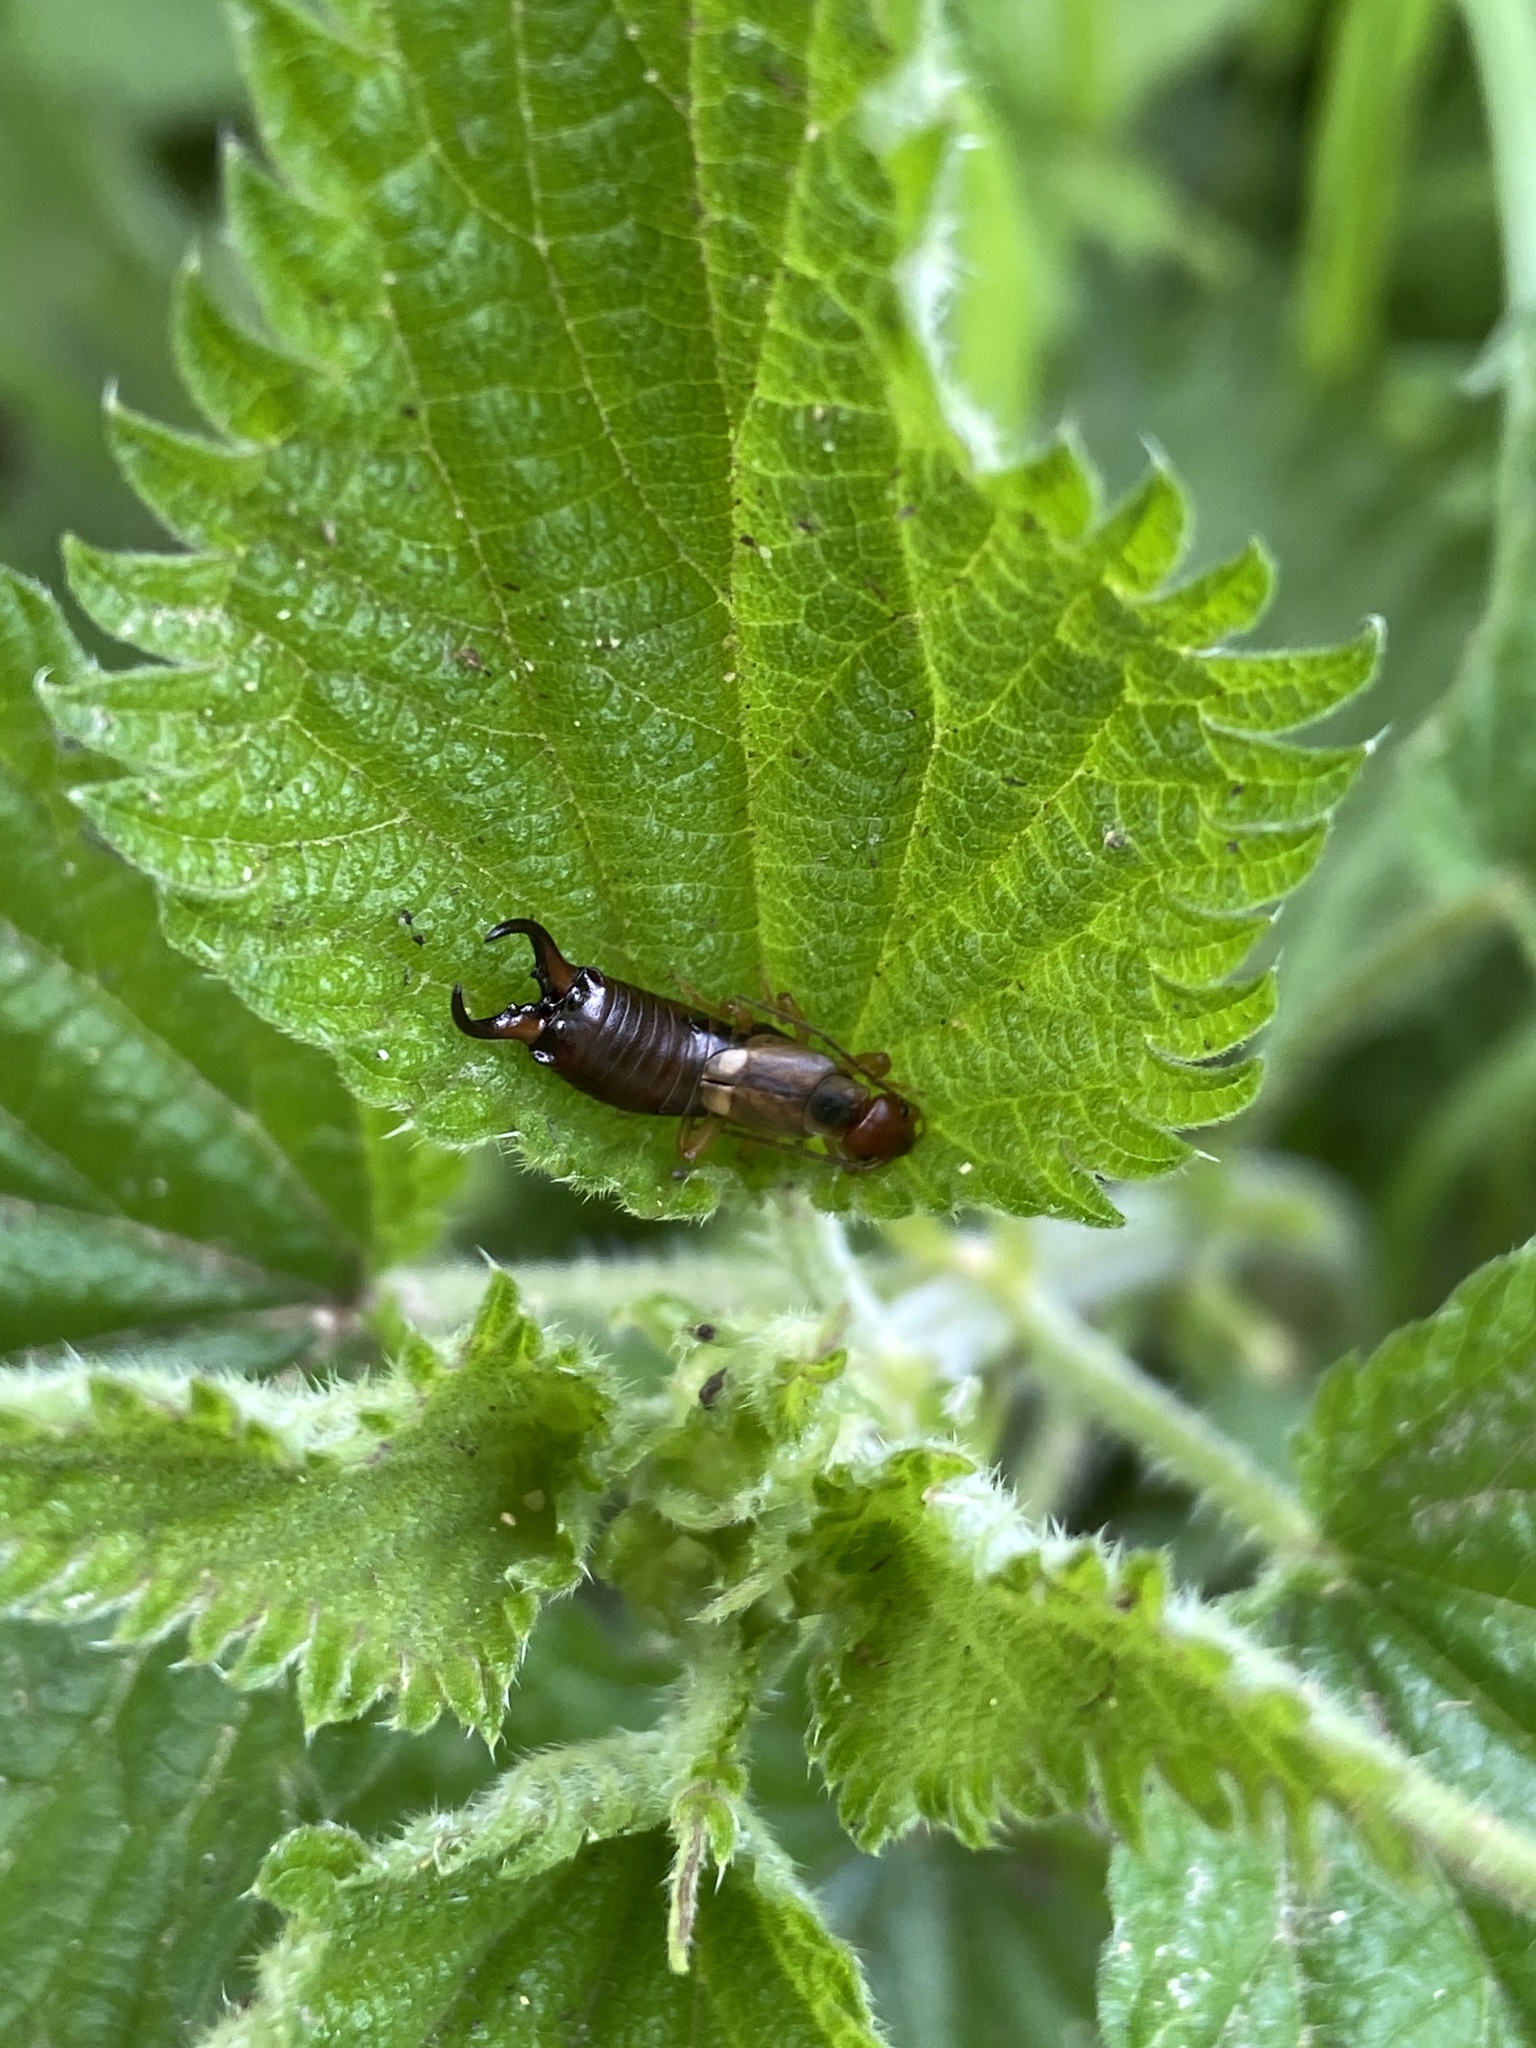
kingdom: Animalia
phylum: Arthropoda
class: Insecta
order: Dermaptera
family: Forficulidae
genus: Forficula
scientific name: Forficula
